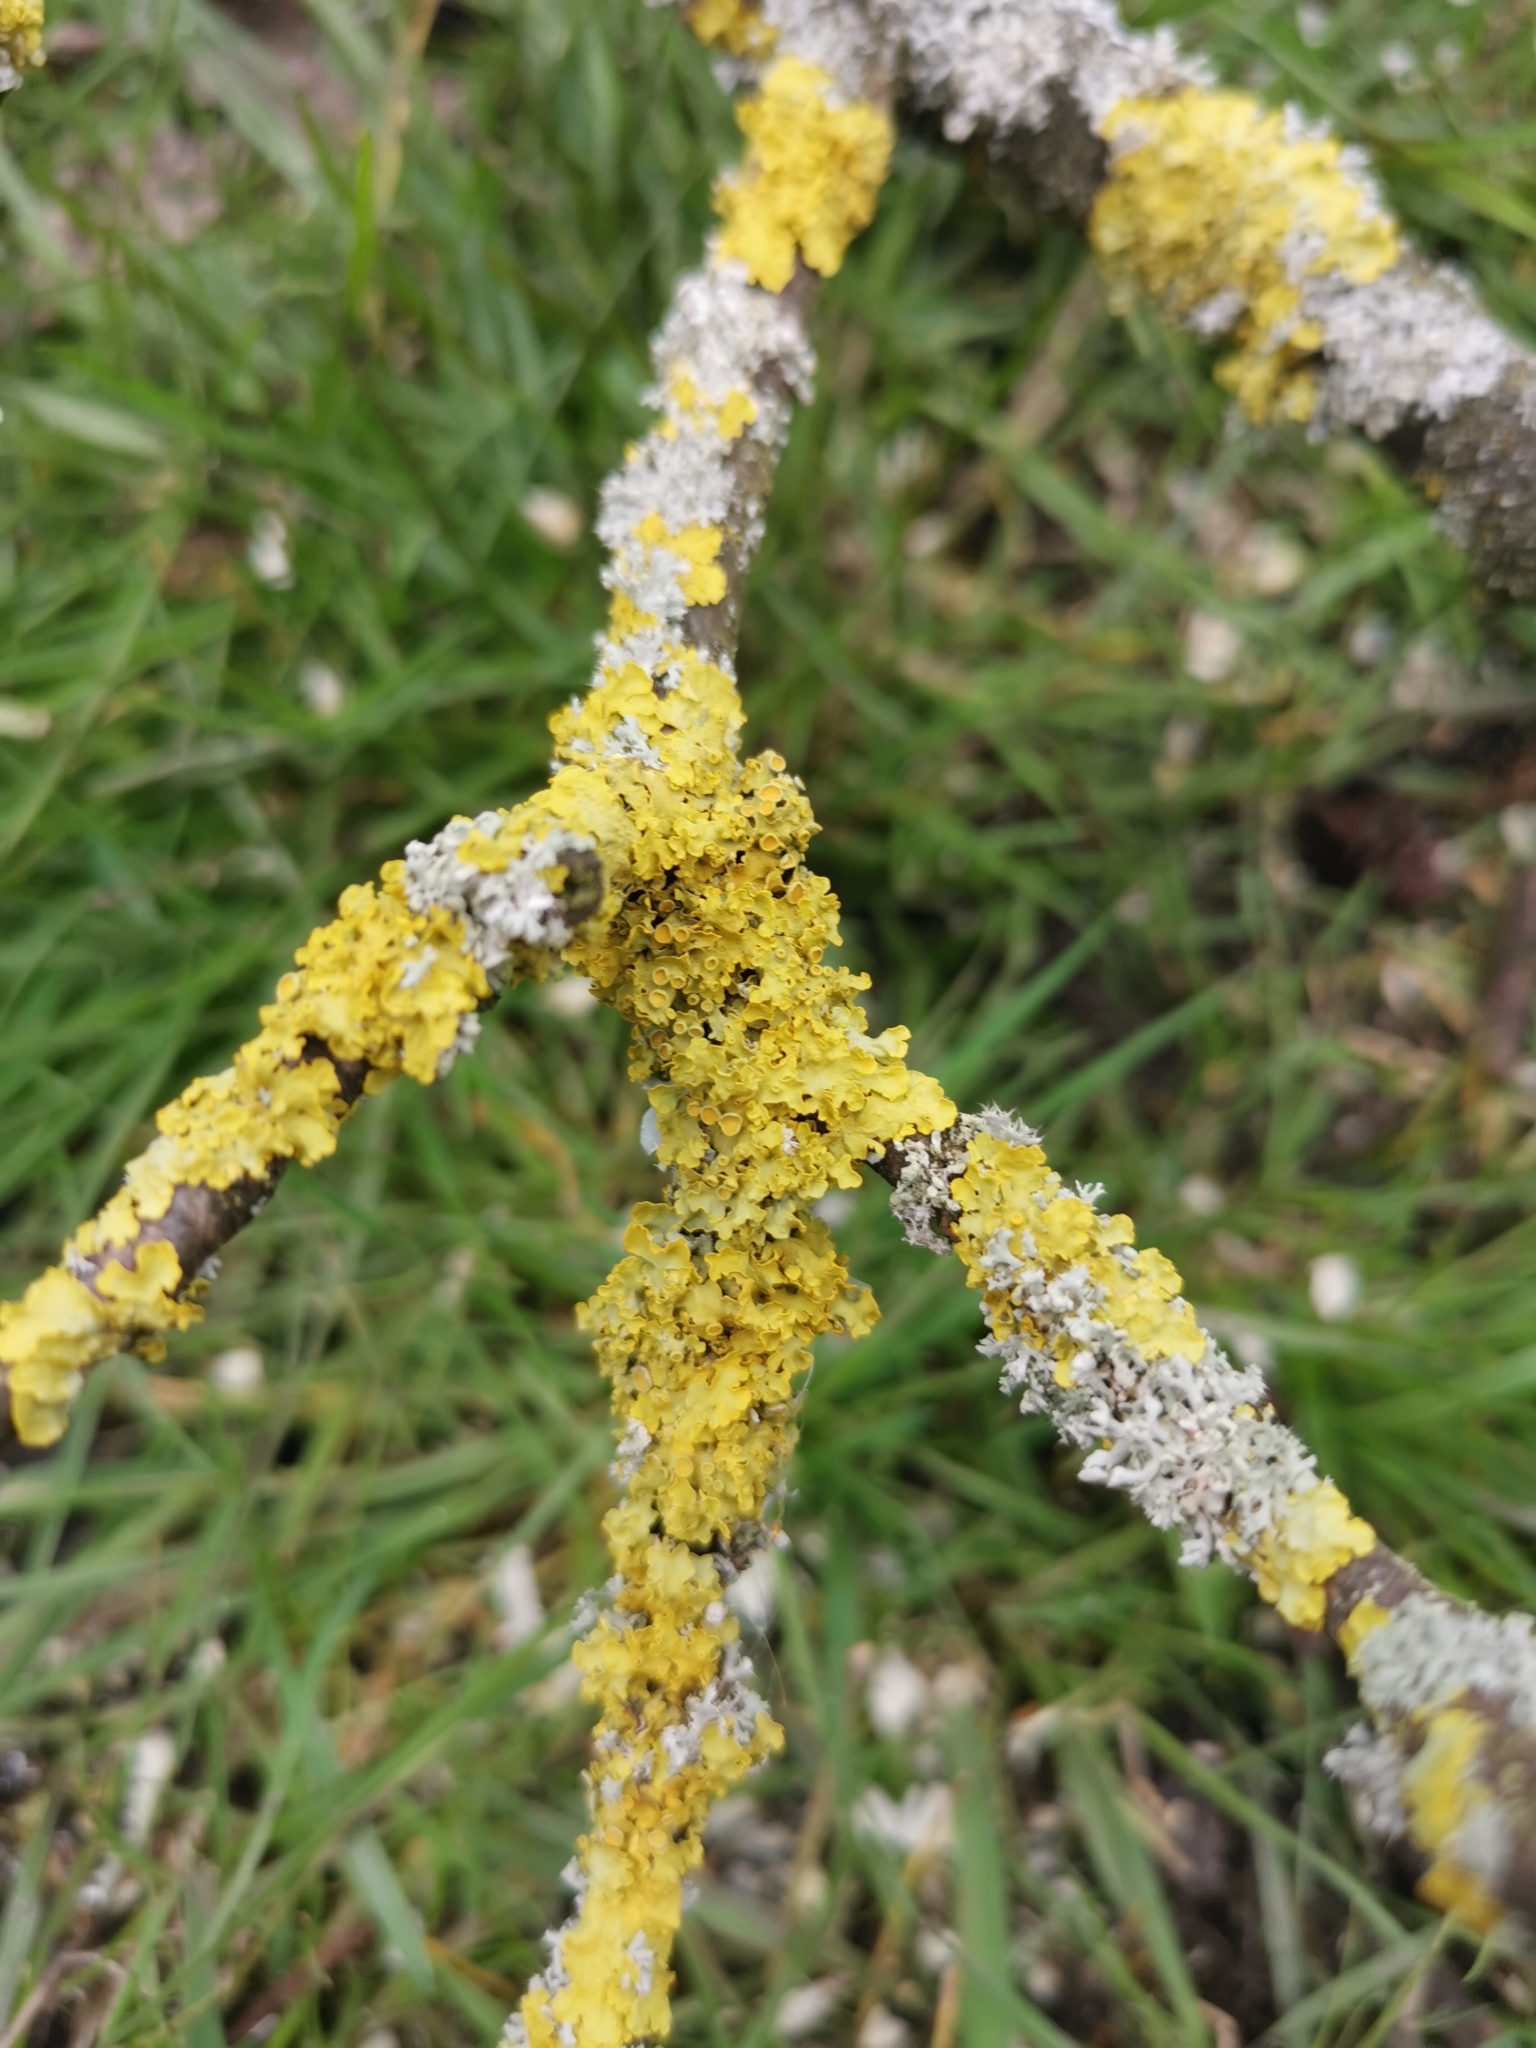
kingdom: Fungi
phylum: Ascomycota
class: Lecanoromycetes
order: Teloschistales
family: Teloschistaceae
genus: Xanthoria
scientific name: Xanthoria parietina
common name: Common orange lichen
